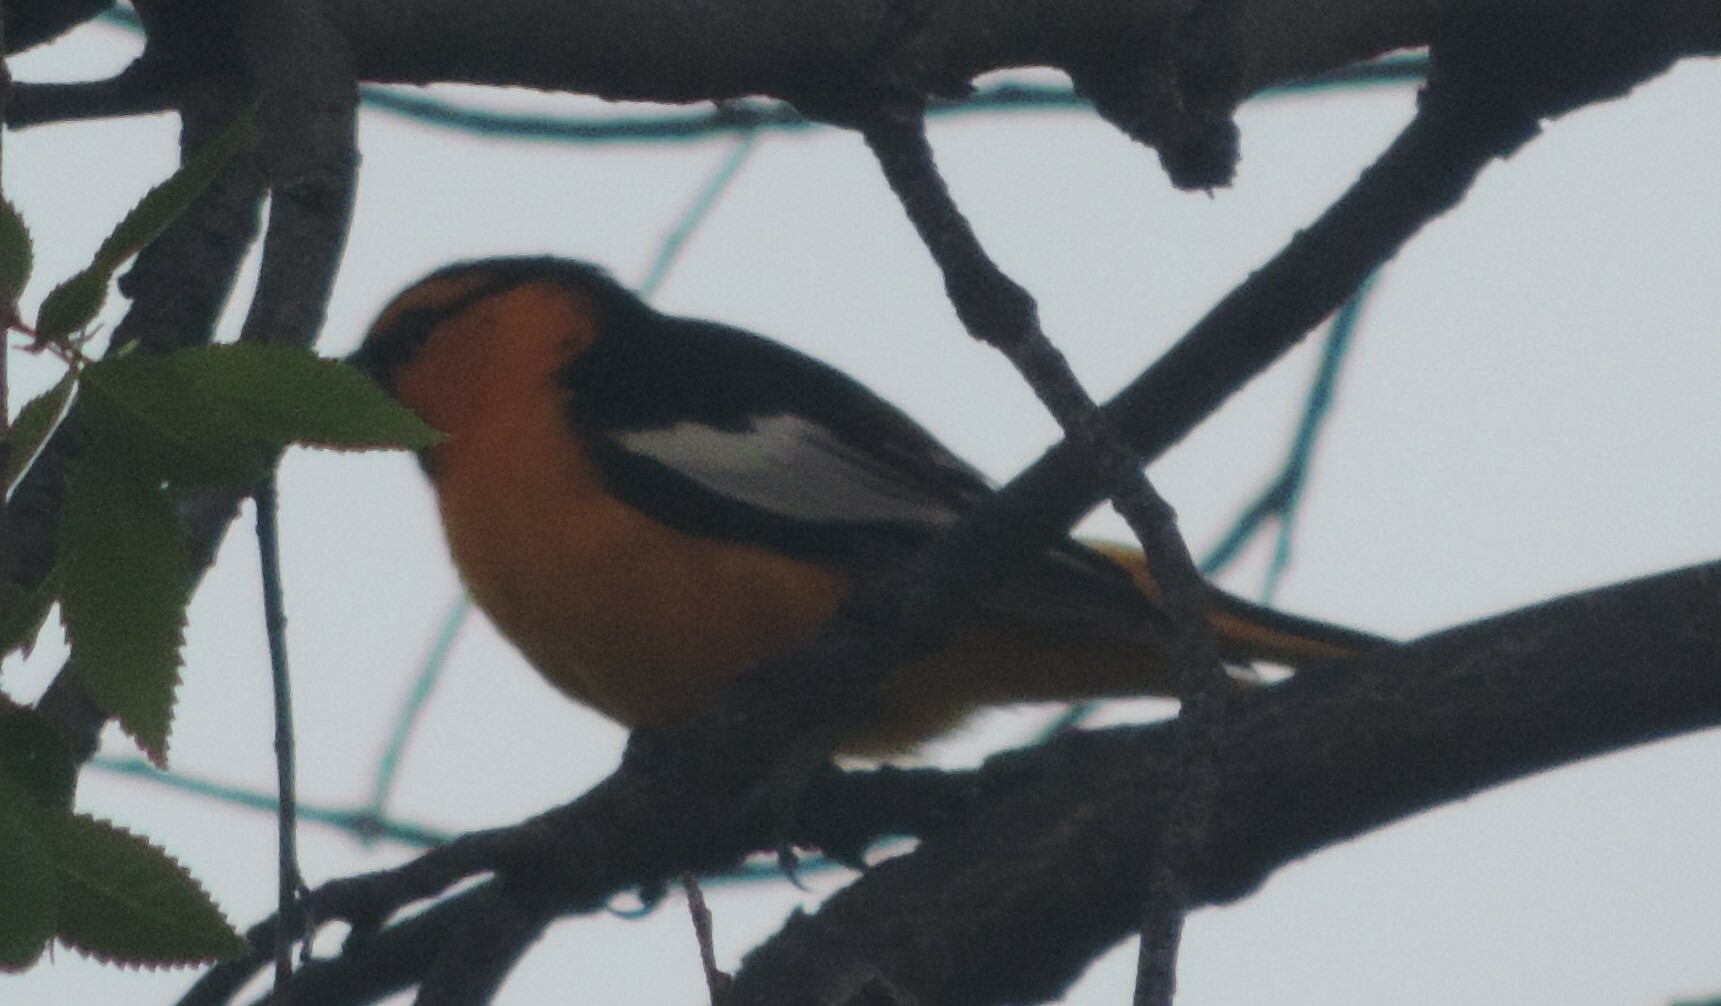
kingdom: Animalia
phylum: Chordata
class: Aves
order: Passeriformes
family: Icteridae
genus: Icterus
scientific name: Icterus bullockii
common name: Bullock's oriole
